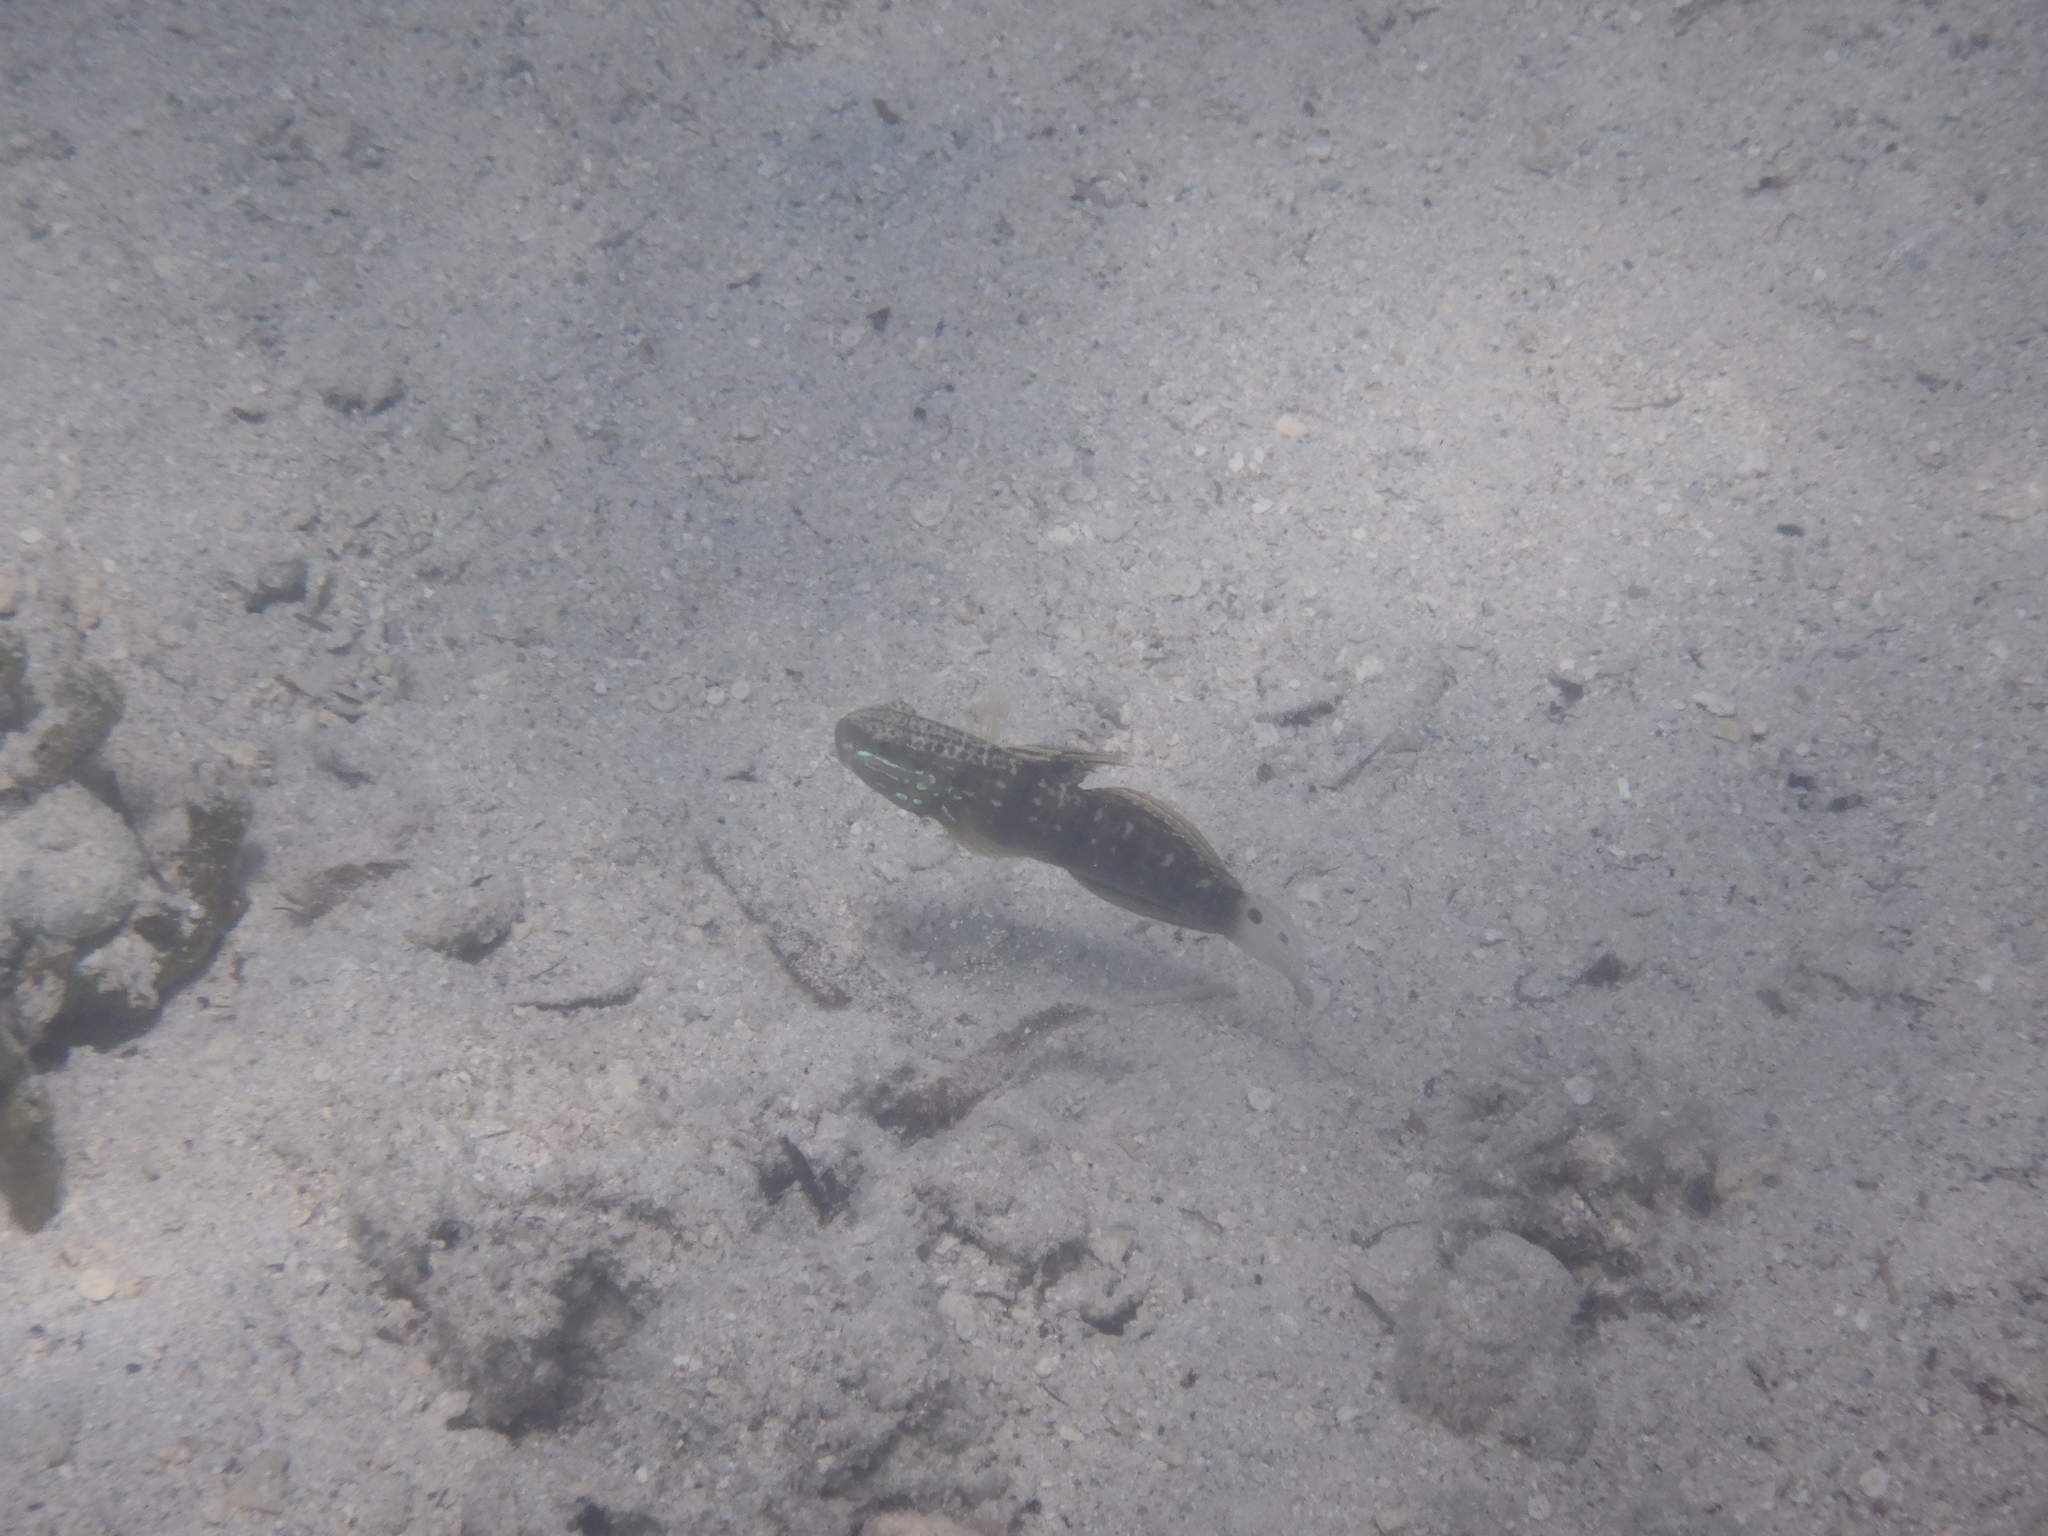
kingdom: Animalia
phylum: Chordata
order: Perciformes
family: Gobiidae
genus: Amblygobius
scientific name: Amblygobius phalaena
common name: Banded goby
